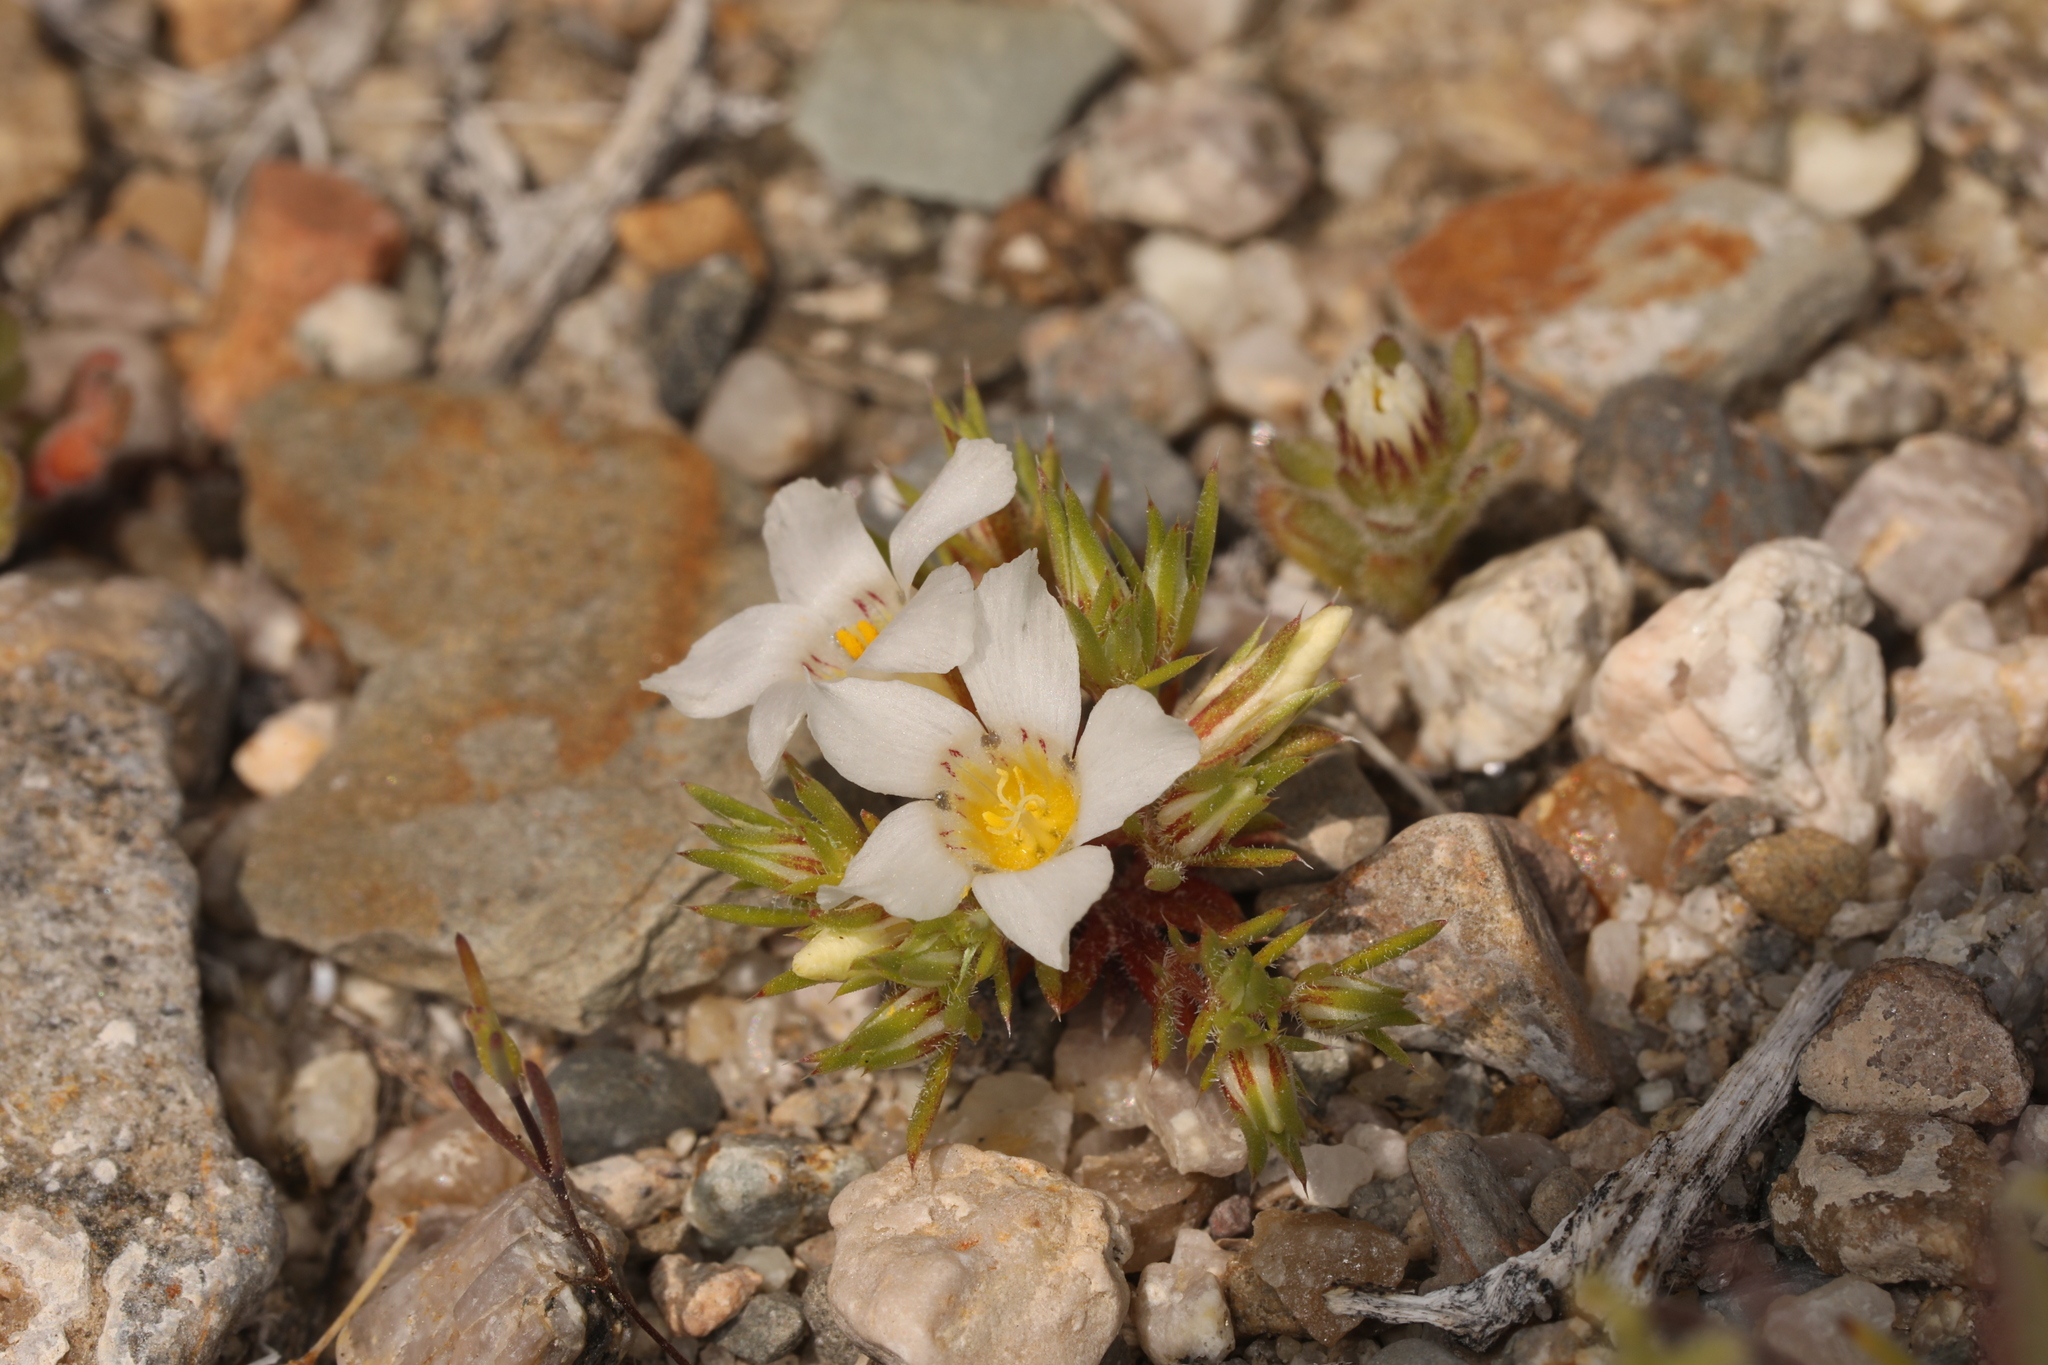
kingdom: Plantae
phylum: Tracheophyta
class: Magnoliopsida
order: Ericales
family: Polemoniaceae
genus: Linanthus
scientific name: Linanthus demissus
